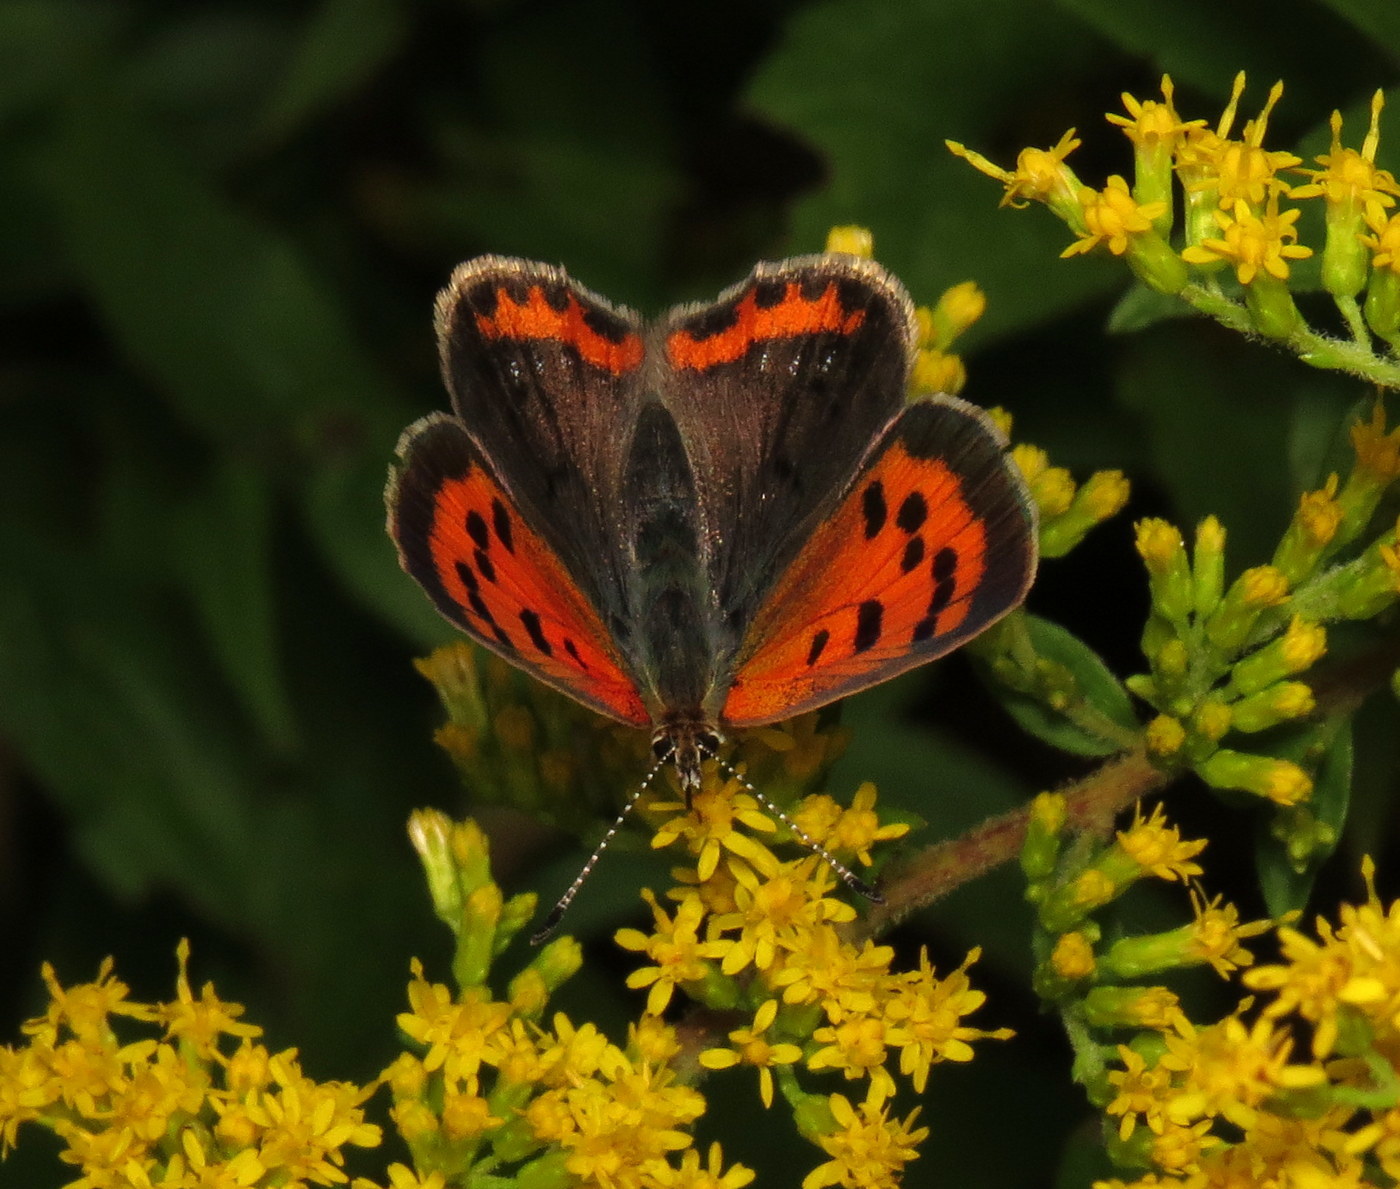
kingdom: Animalia
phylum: Arthropoda
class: Insecta
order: Lepidoptera
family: Lycaenidae
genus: Lycaena
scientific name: Lycaena hypophlaeas
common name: American copper
